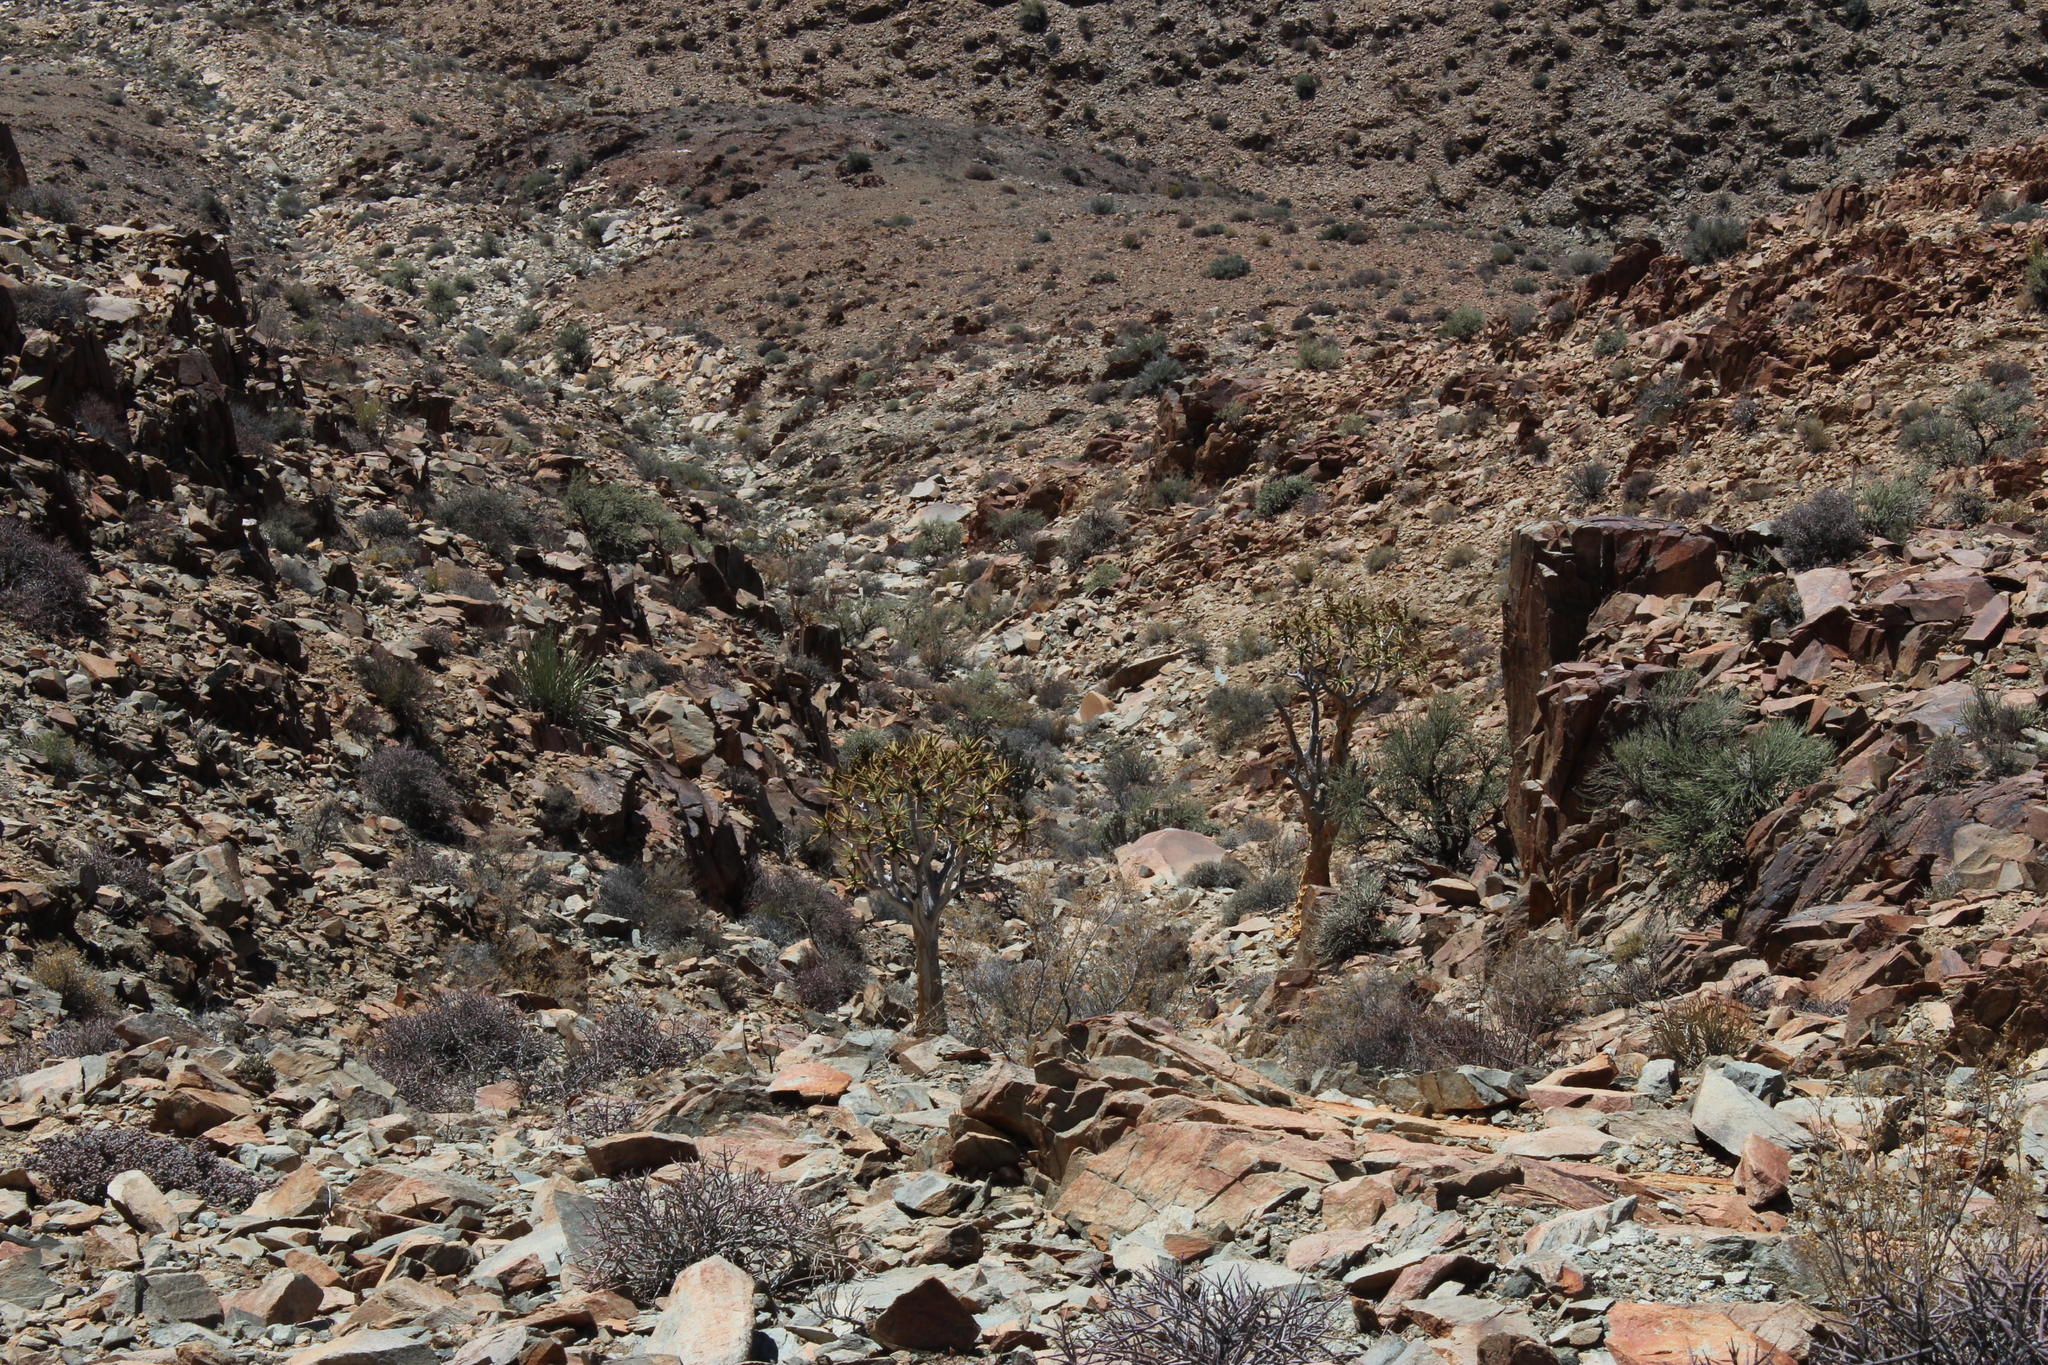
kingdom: Plantae
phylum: Tracheophyta
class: Liliopsida
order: Asparagales
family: Asphodelaceae
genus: Aloidendron
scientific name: Aloidendron dichotomum
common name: Quiver tree
